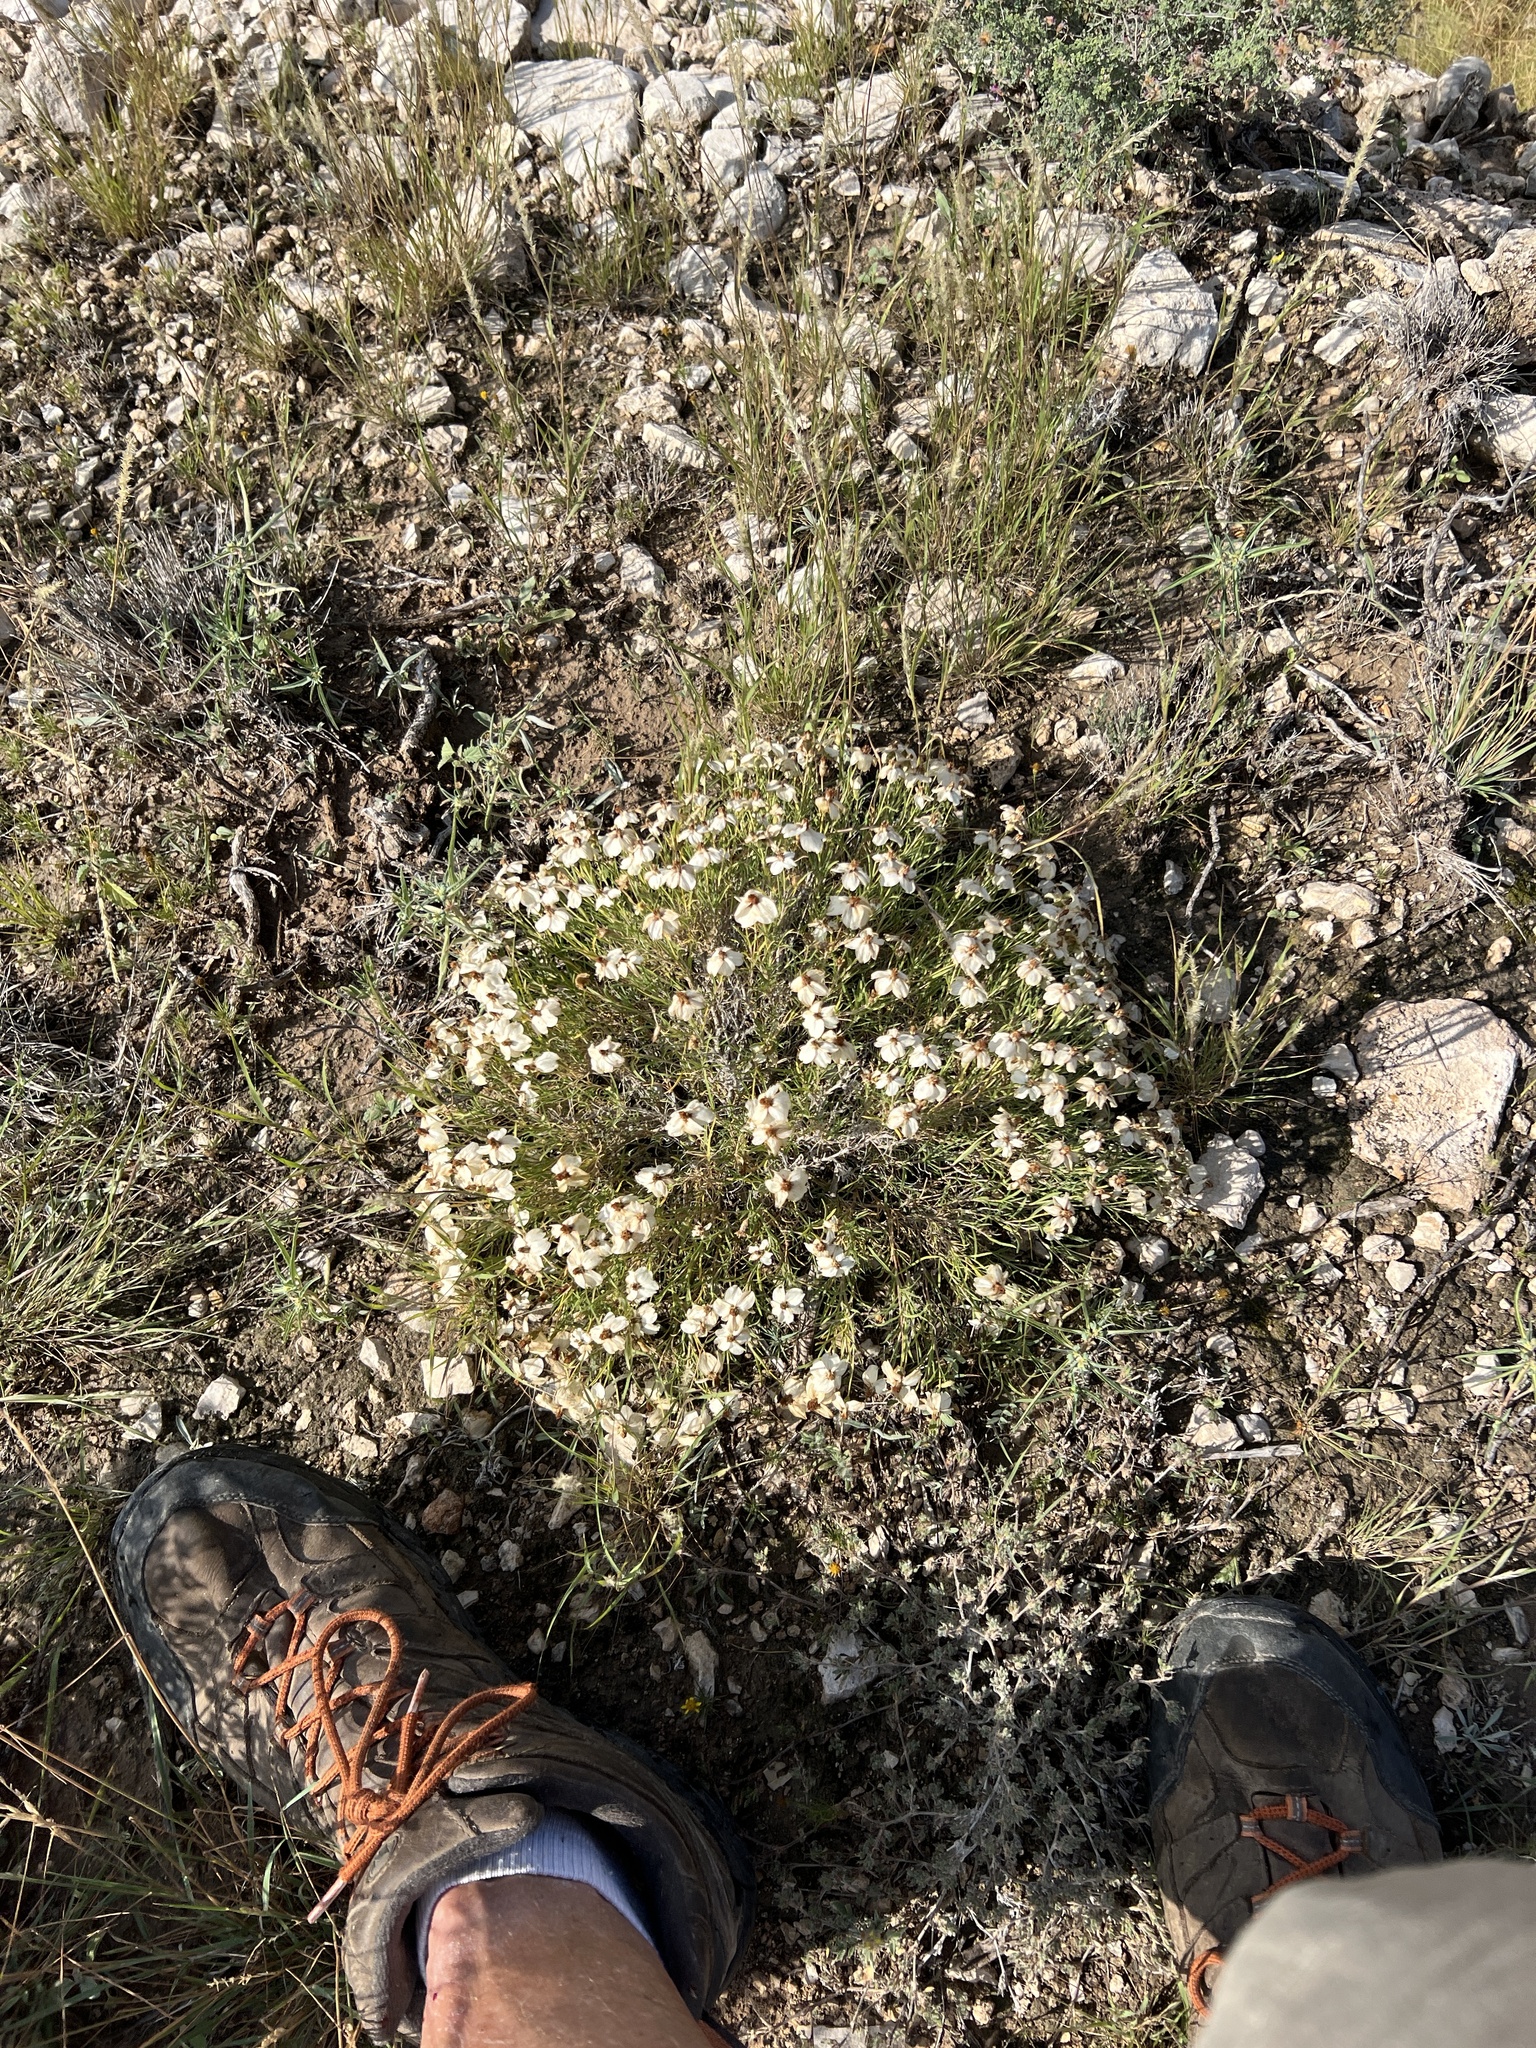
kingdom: Plantae
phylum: Tracheophyta
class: Magnoliopsida
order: Asterales
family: Asteraceae
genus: Zinnia
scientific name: Zinnia acerosa
